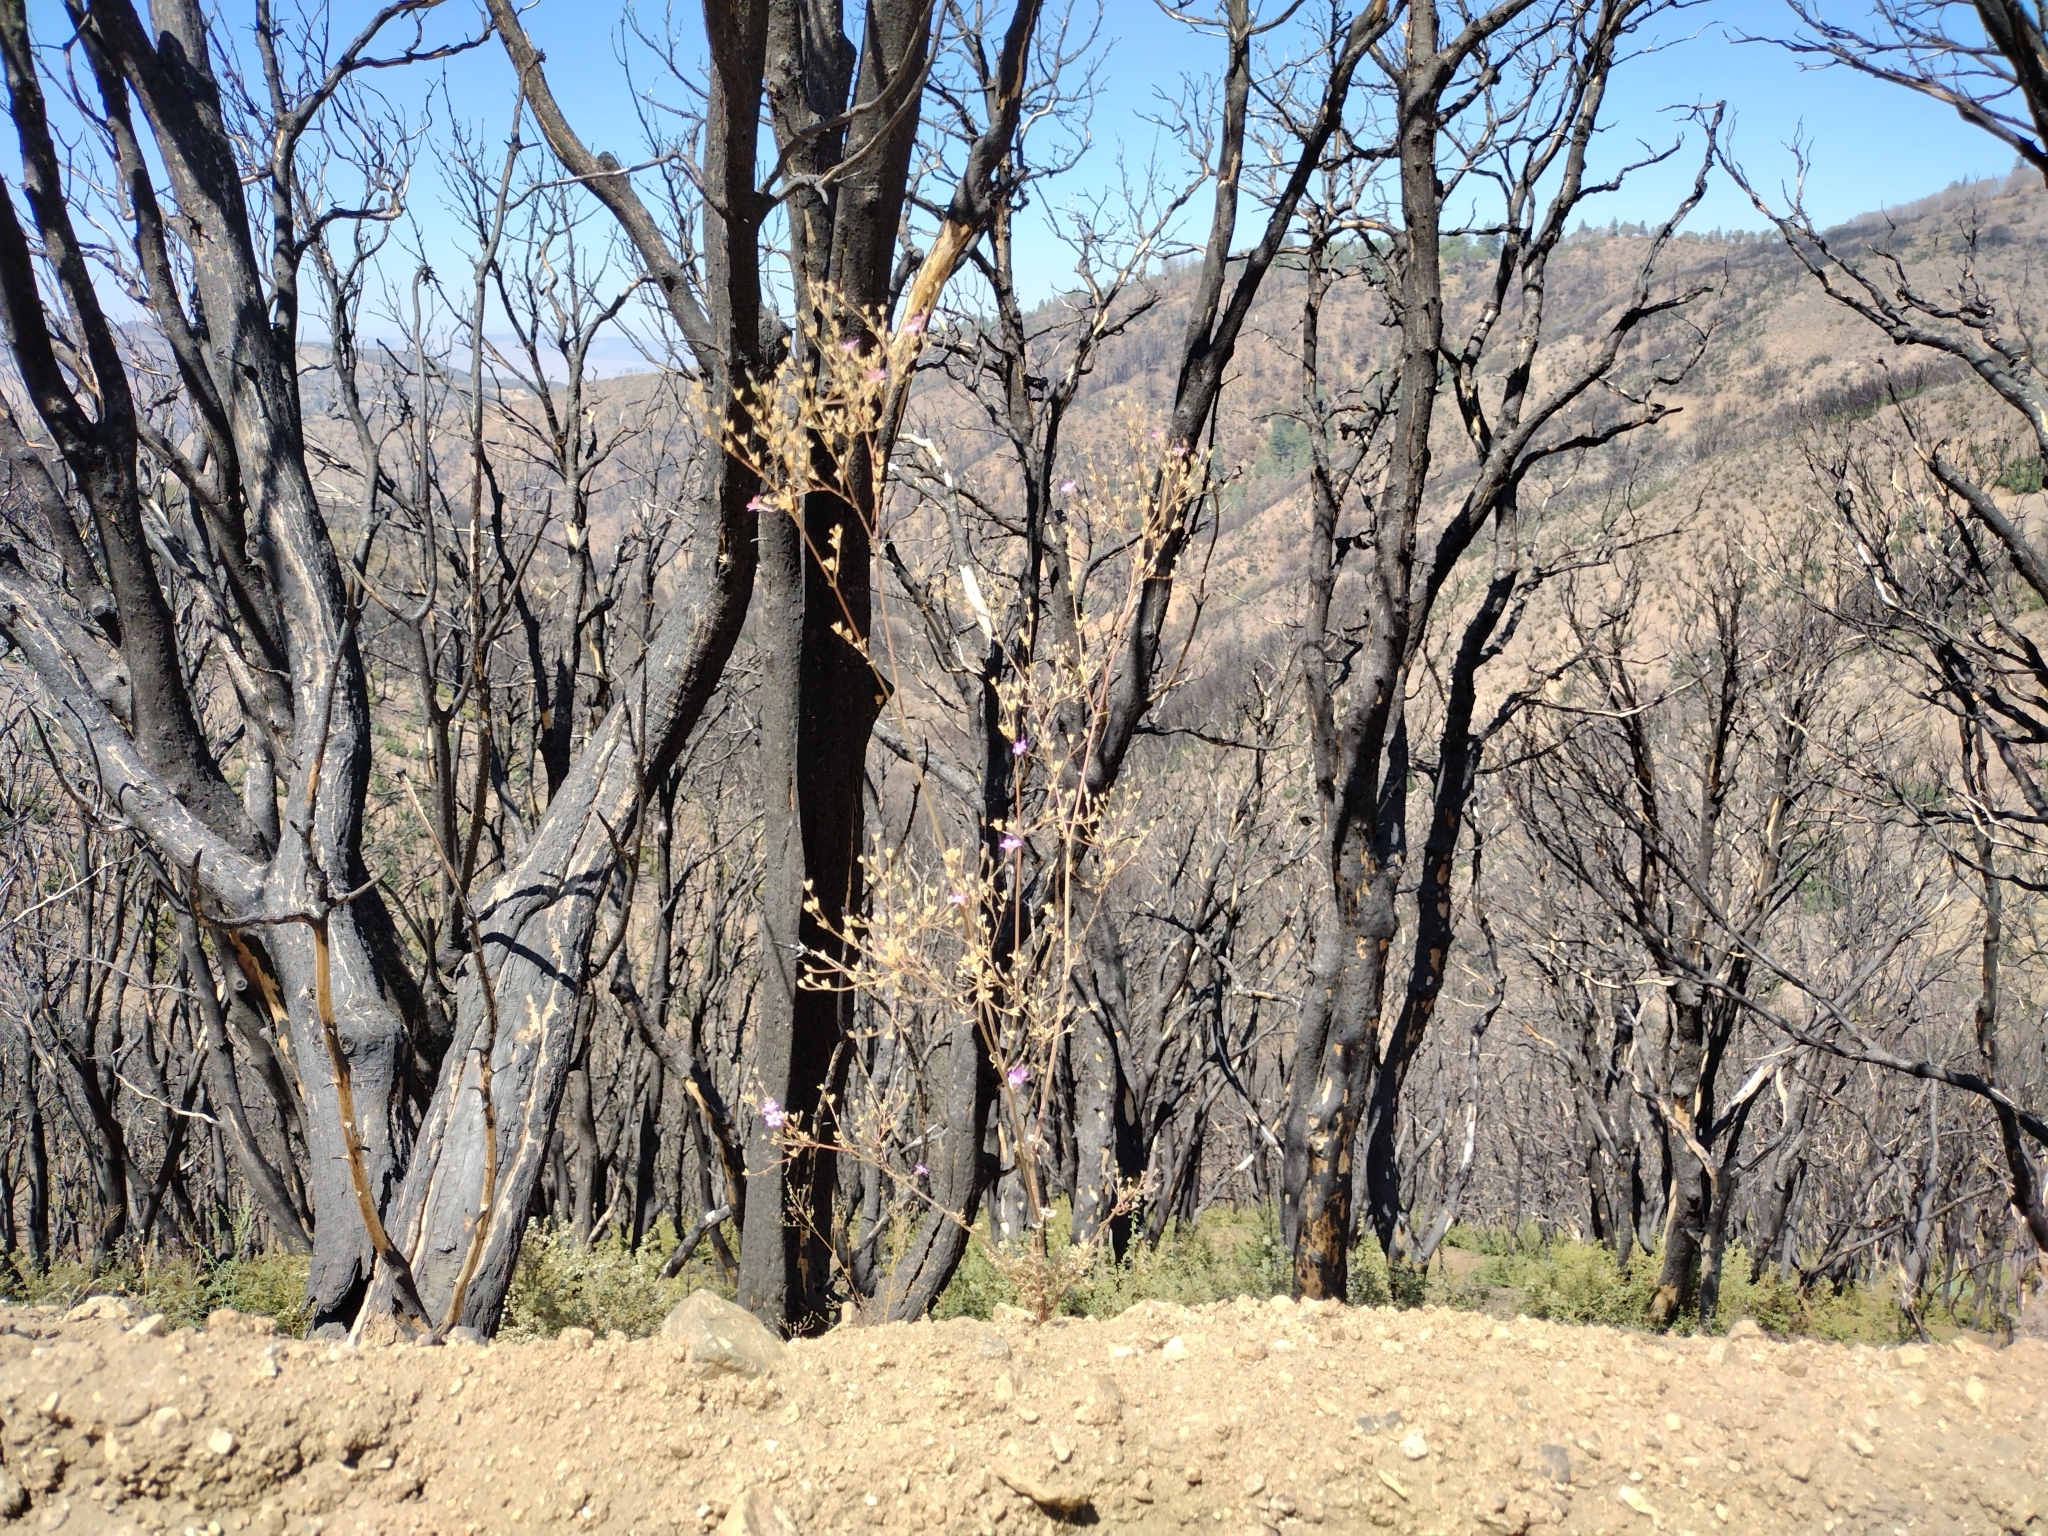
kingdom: Plantae
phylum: Tracheophyta
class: Magnoliopsida
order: Ericales
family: Polemoniaceae
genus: Saltugilia
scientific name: Saltugilia splendens
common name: Grinnell's gilia
